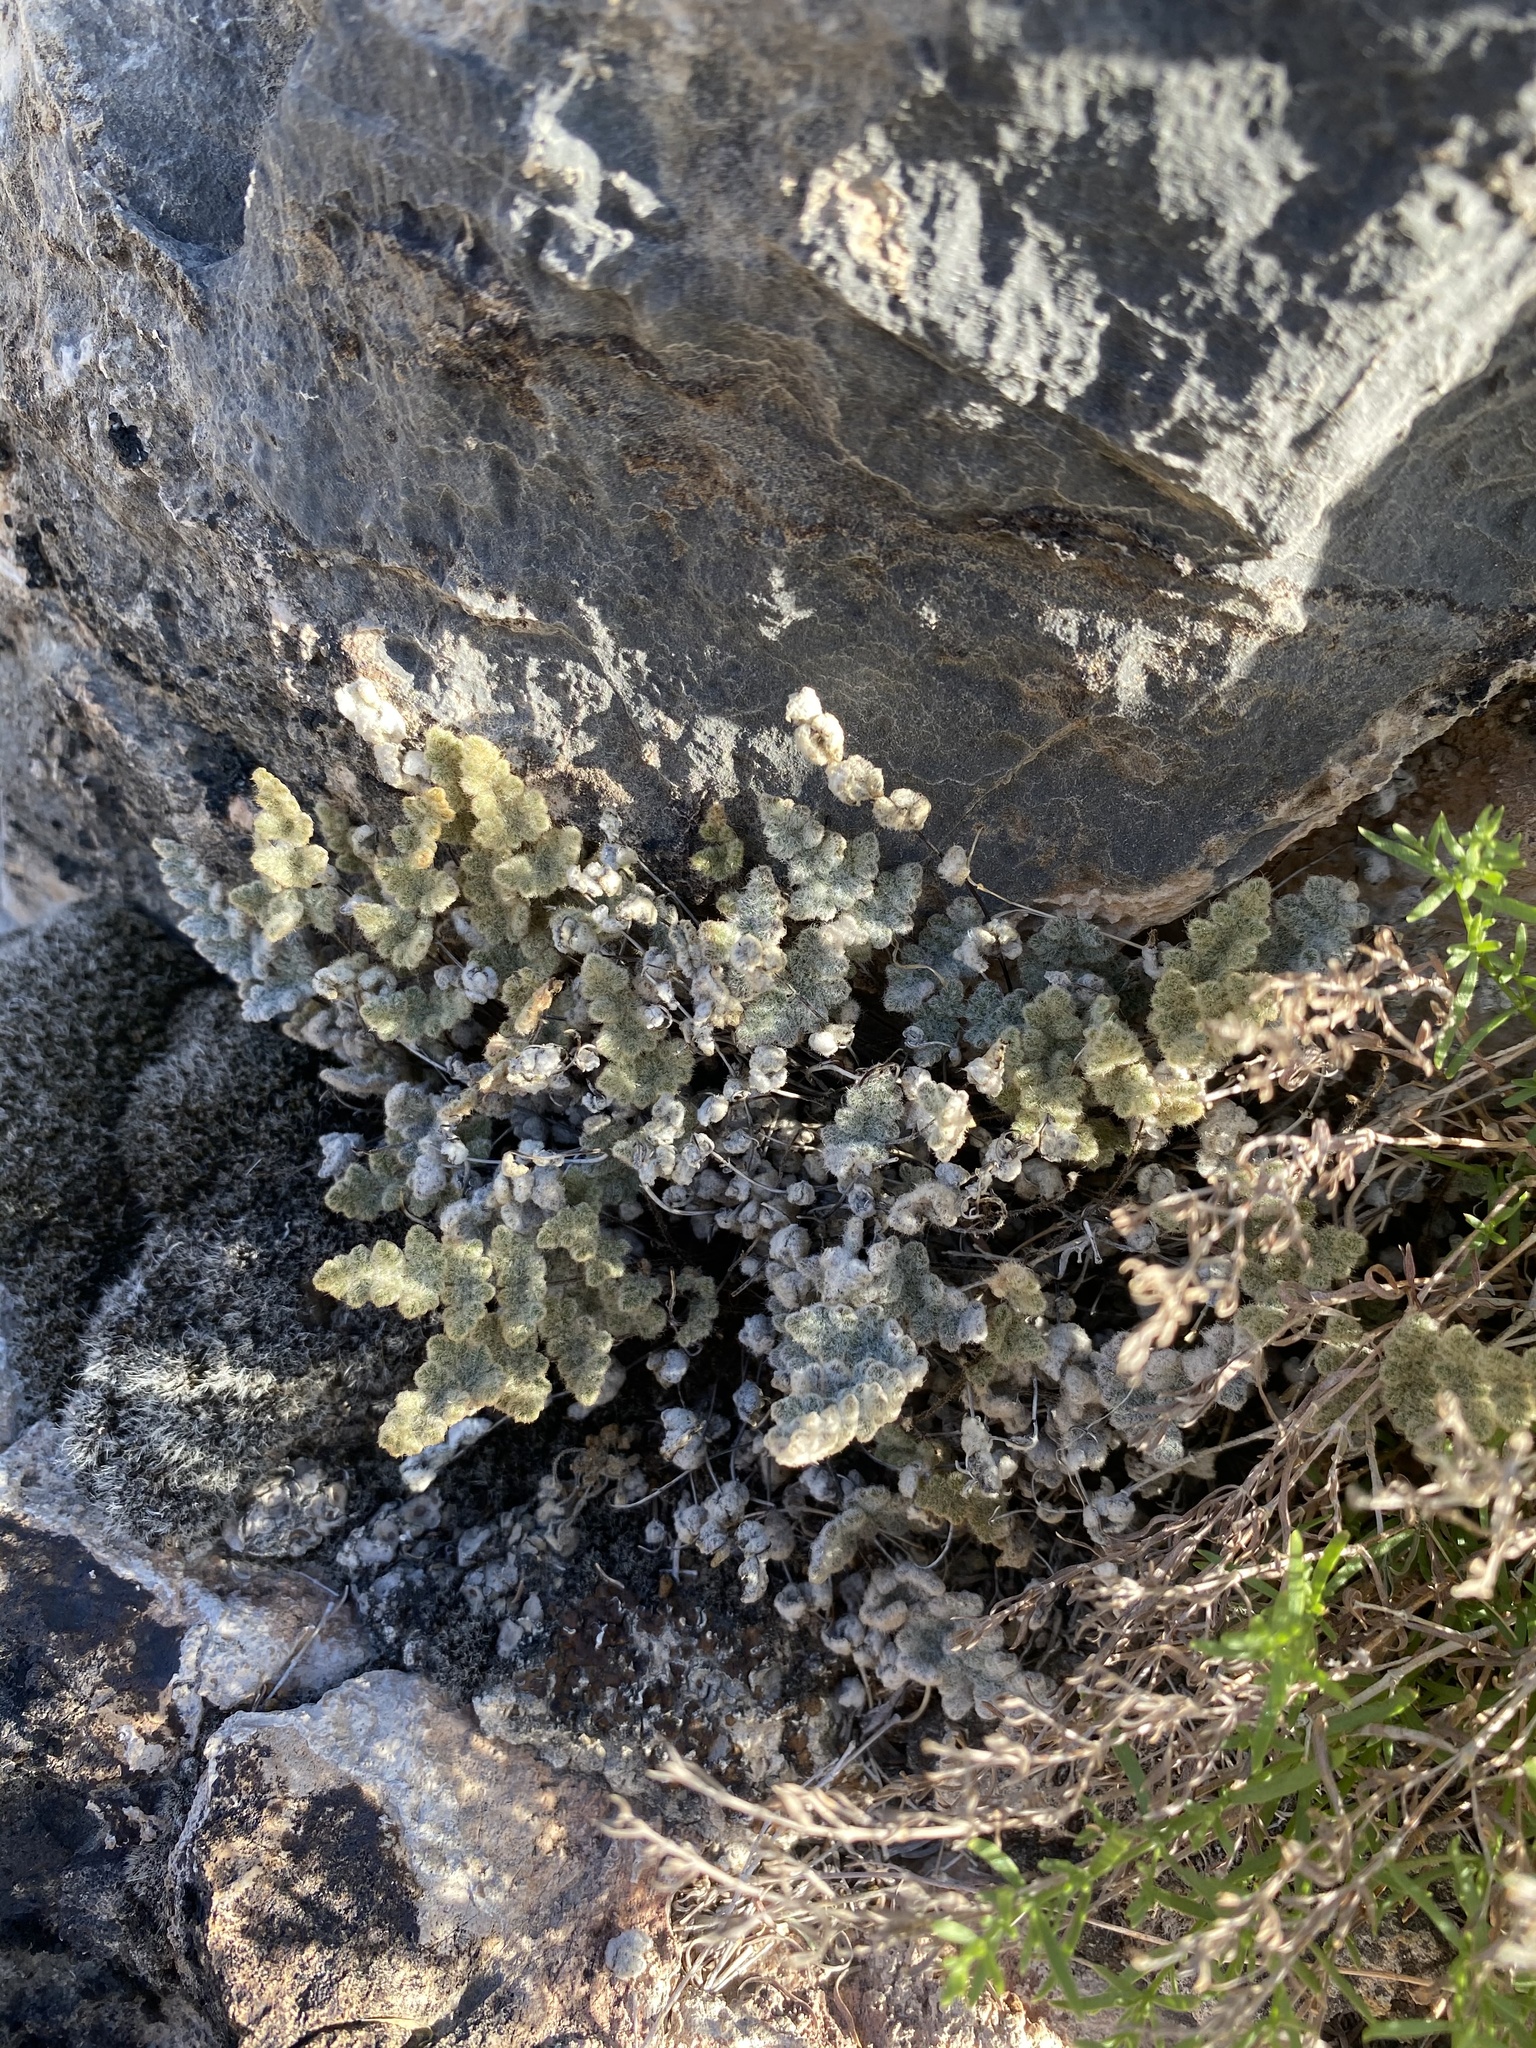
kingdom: Plantae
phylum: Tracheophyta
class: Polypodiopsida
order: Polypodiales
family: Pteridaceae
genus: Myriopteris
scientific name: Myriopteris parryi
